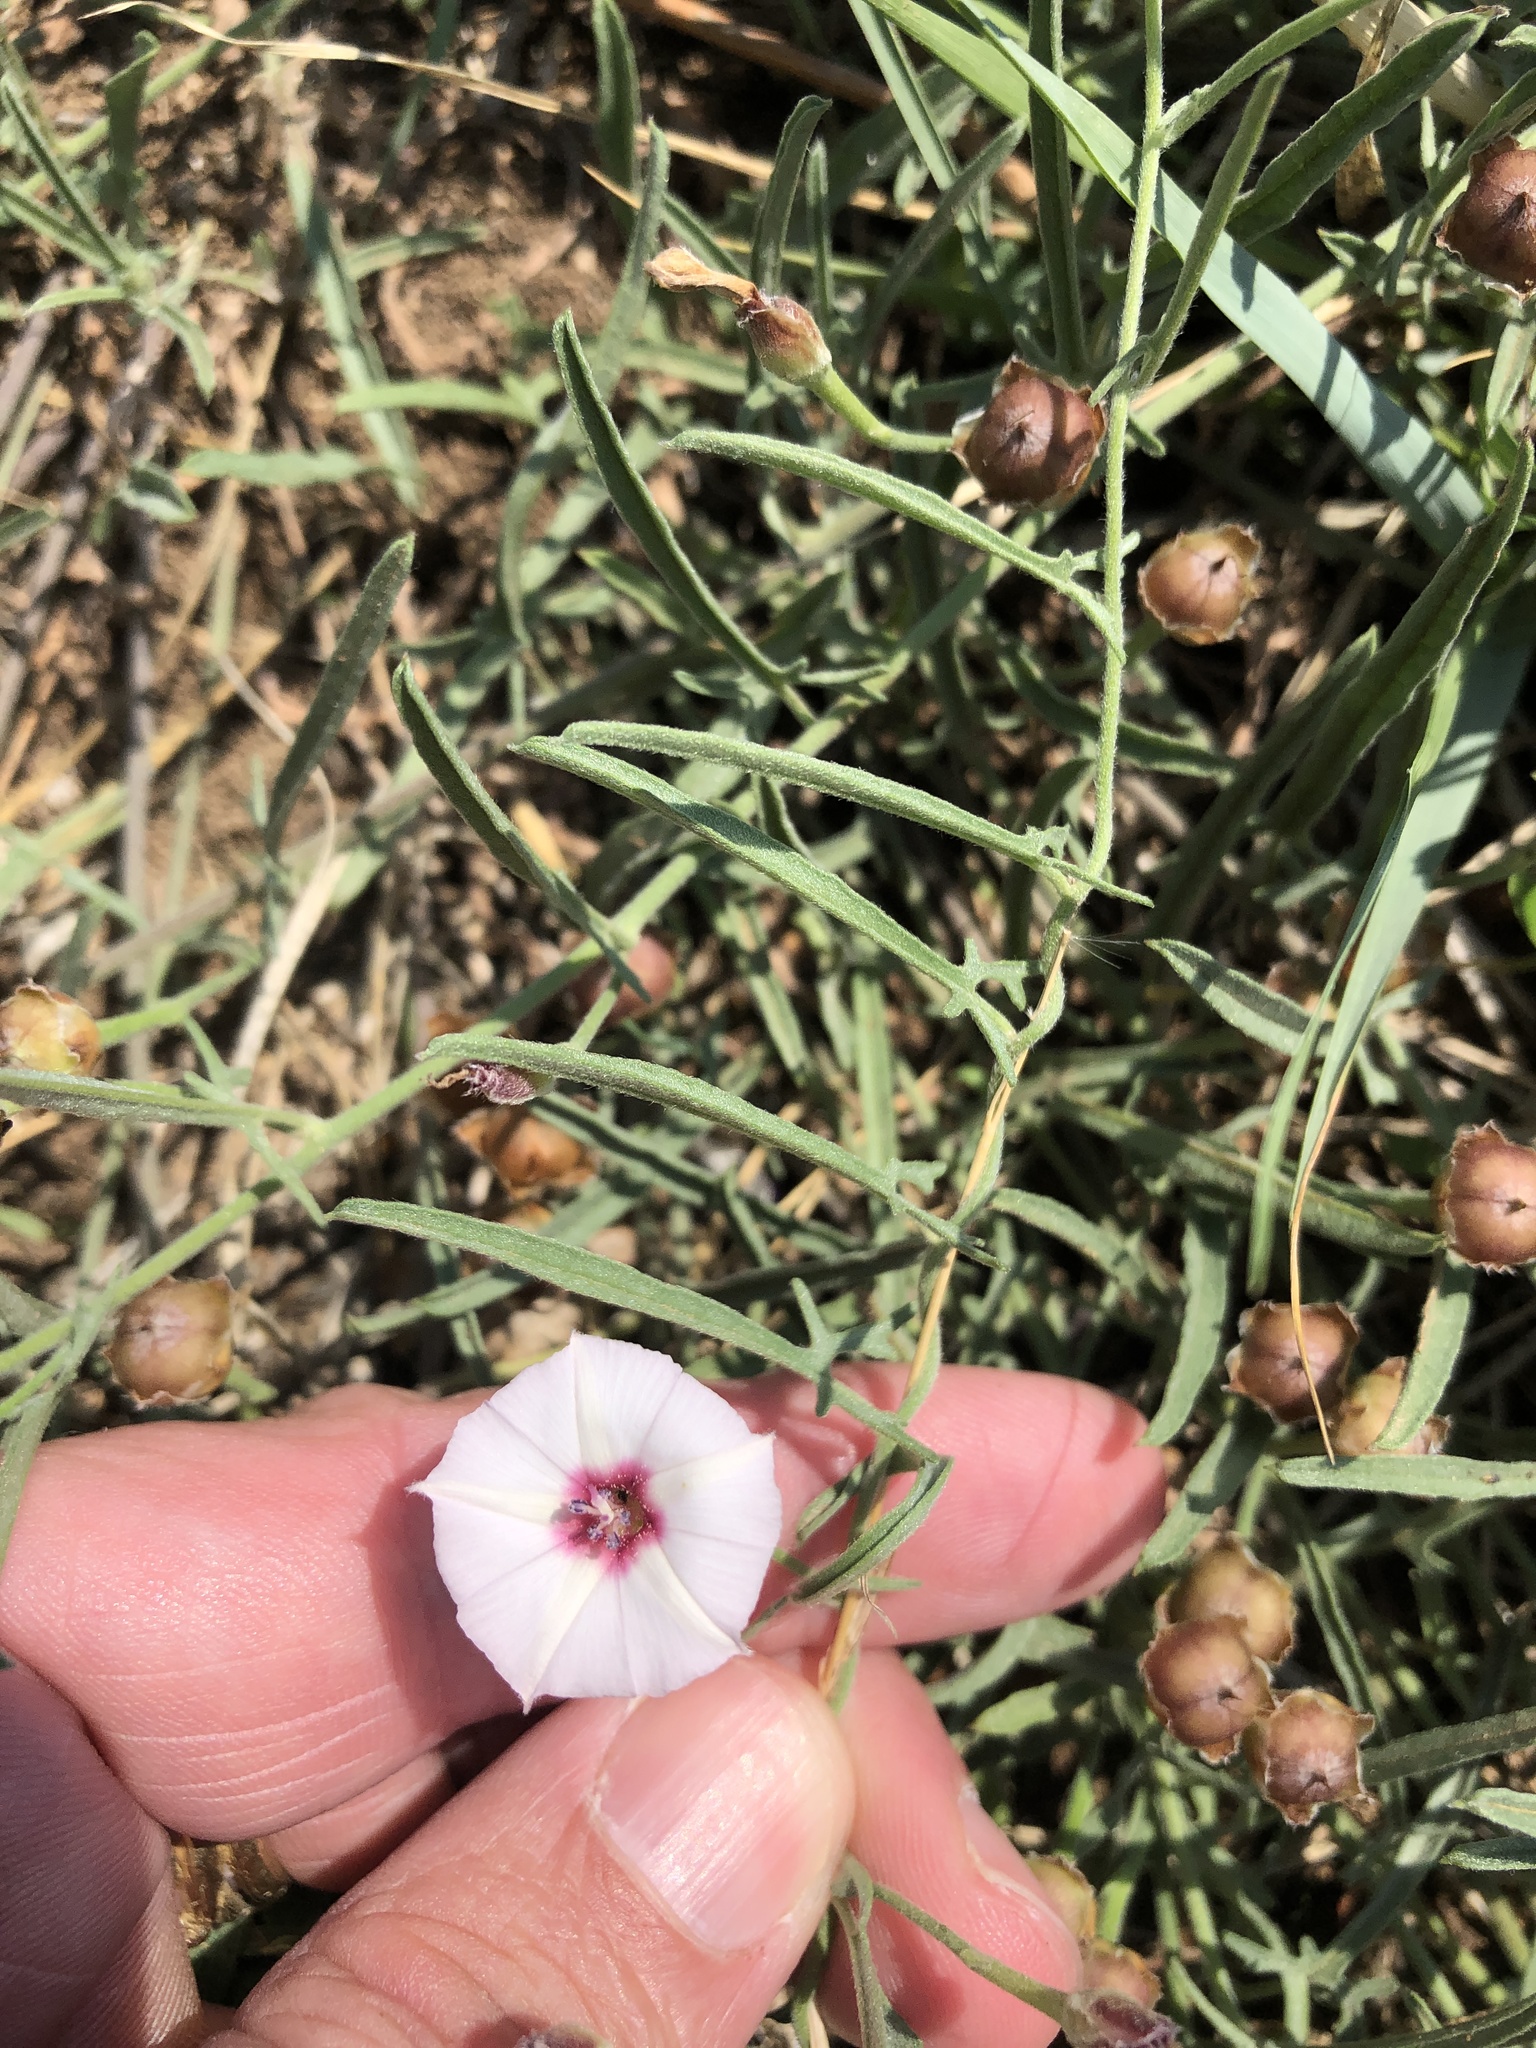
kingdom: Plantae
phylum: Tracheophyta
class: Magnoliopsida
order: Solanales
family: Convolvulaceae
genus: Convolvulus
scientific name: Convolvulus equitans
